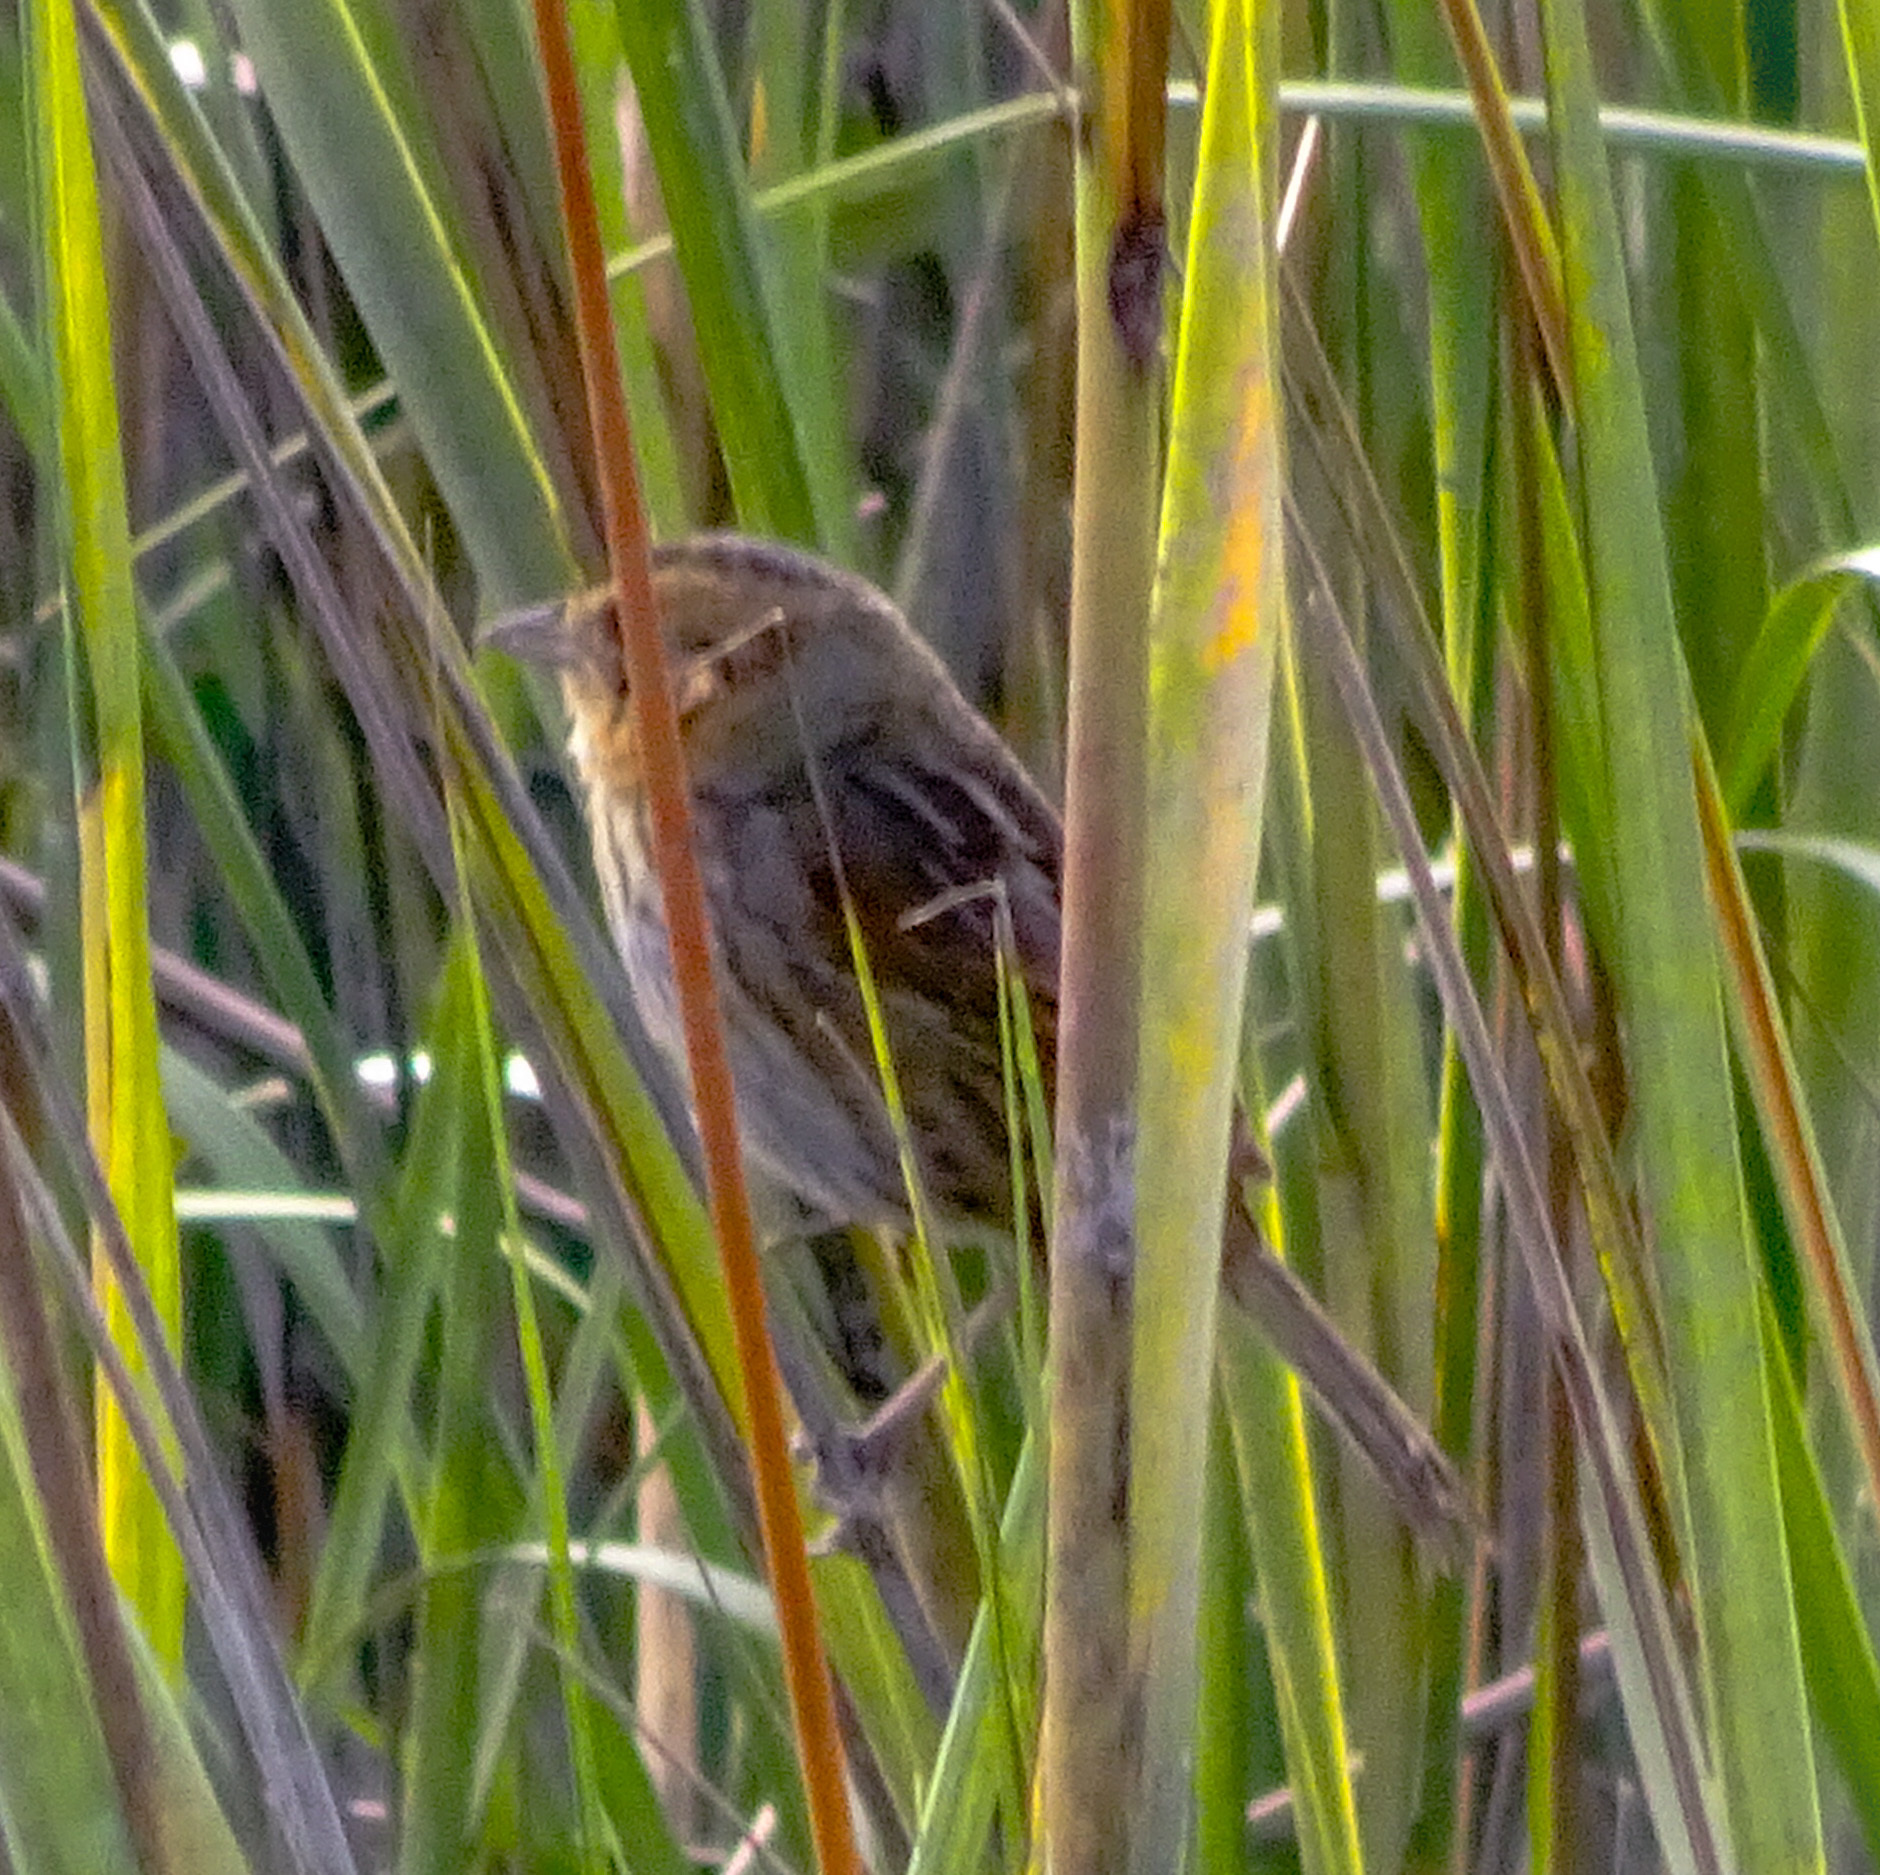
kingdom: Animalia
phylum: Chordata
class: Aves
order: Passeriformes
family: Passerellidae
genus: Ammospiza
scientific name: Ammospiza nelsoni
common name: Nelson's sparrow
